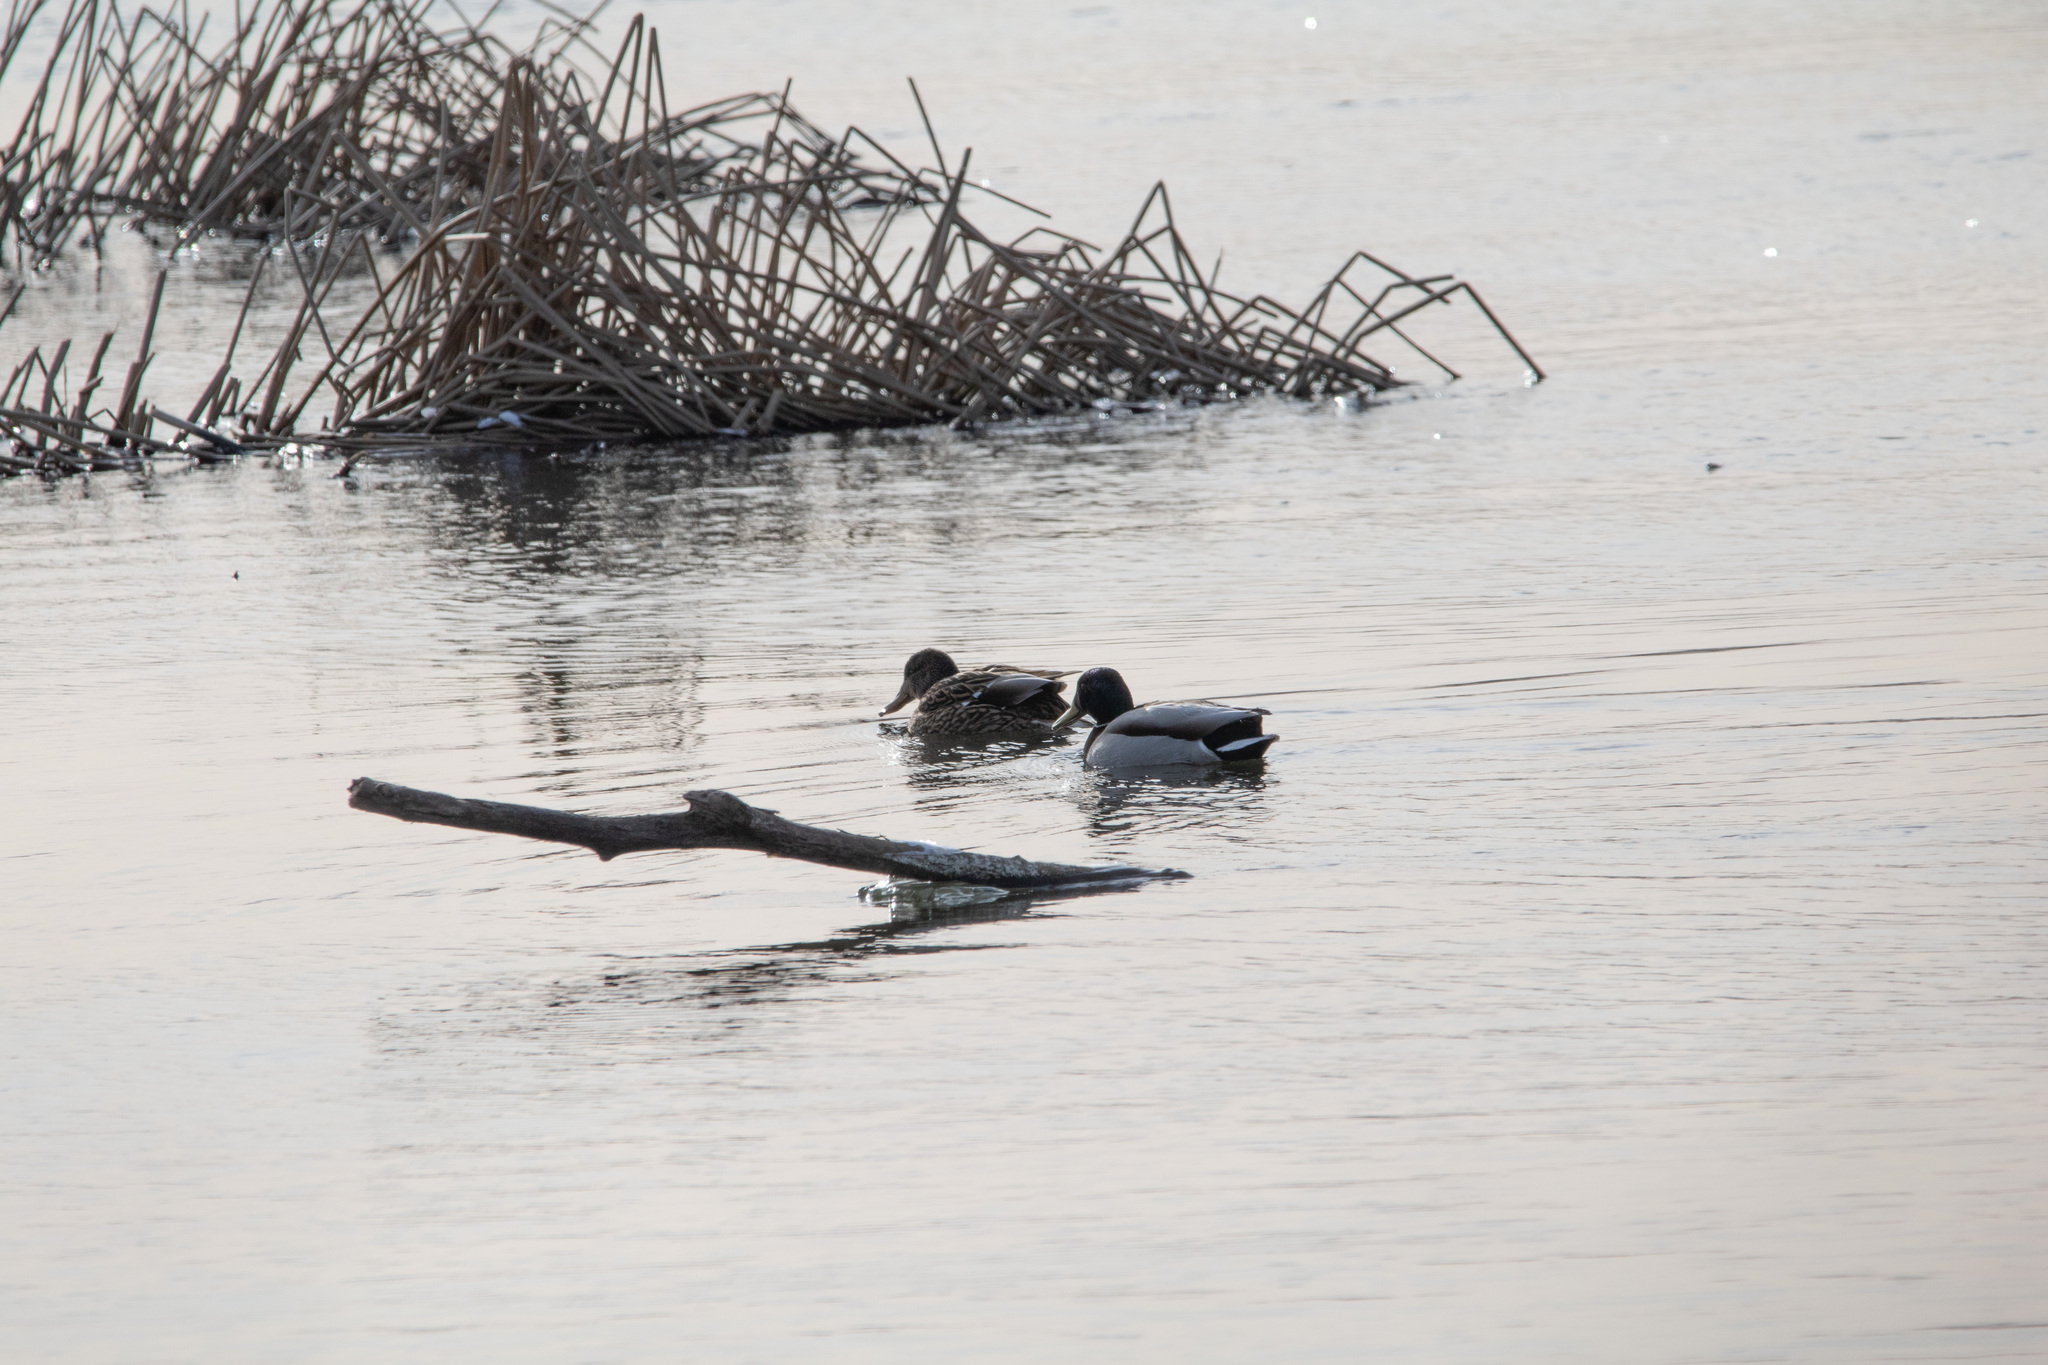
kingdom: Animalia
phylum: Chordata
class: Aves
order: Anseriformes
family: Anatidae
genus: Anas
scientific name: Anas platyrhynchos
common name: Mallard
